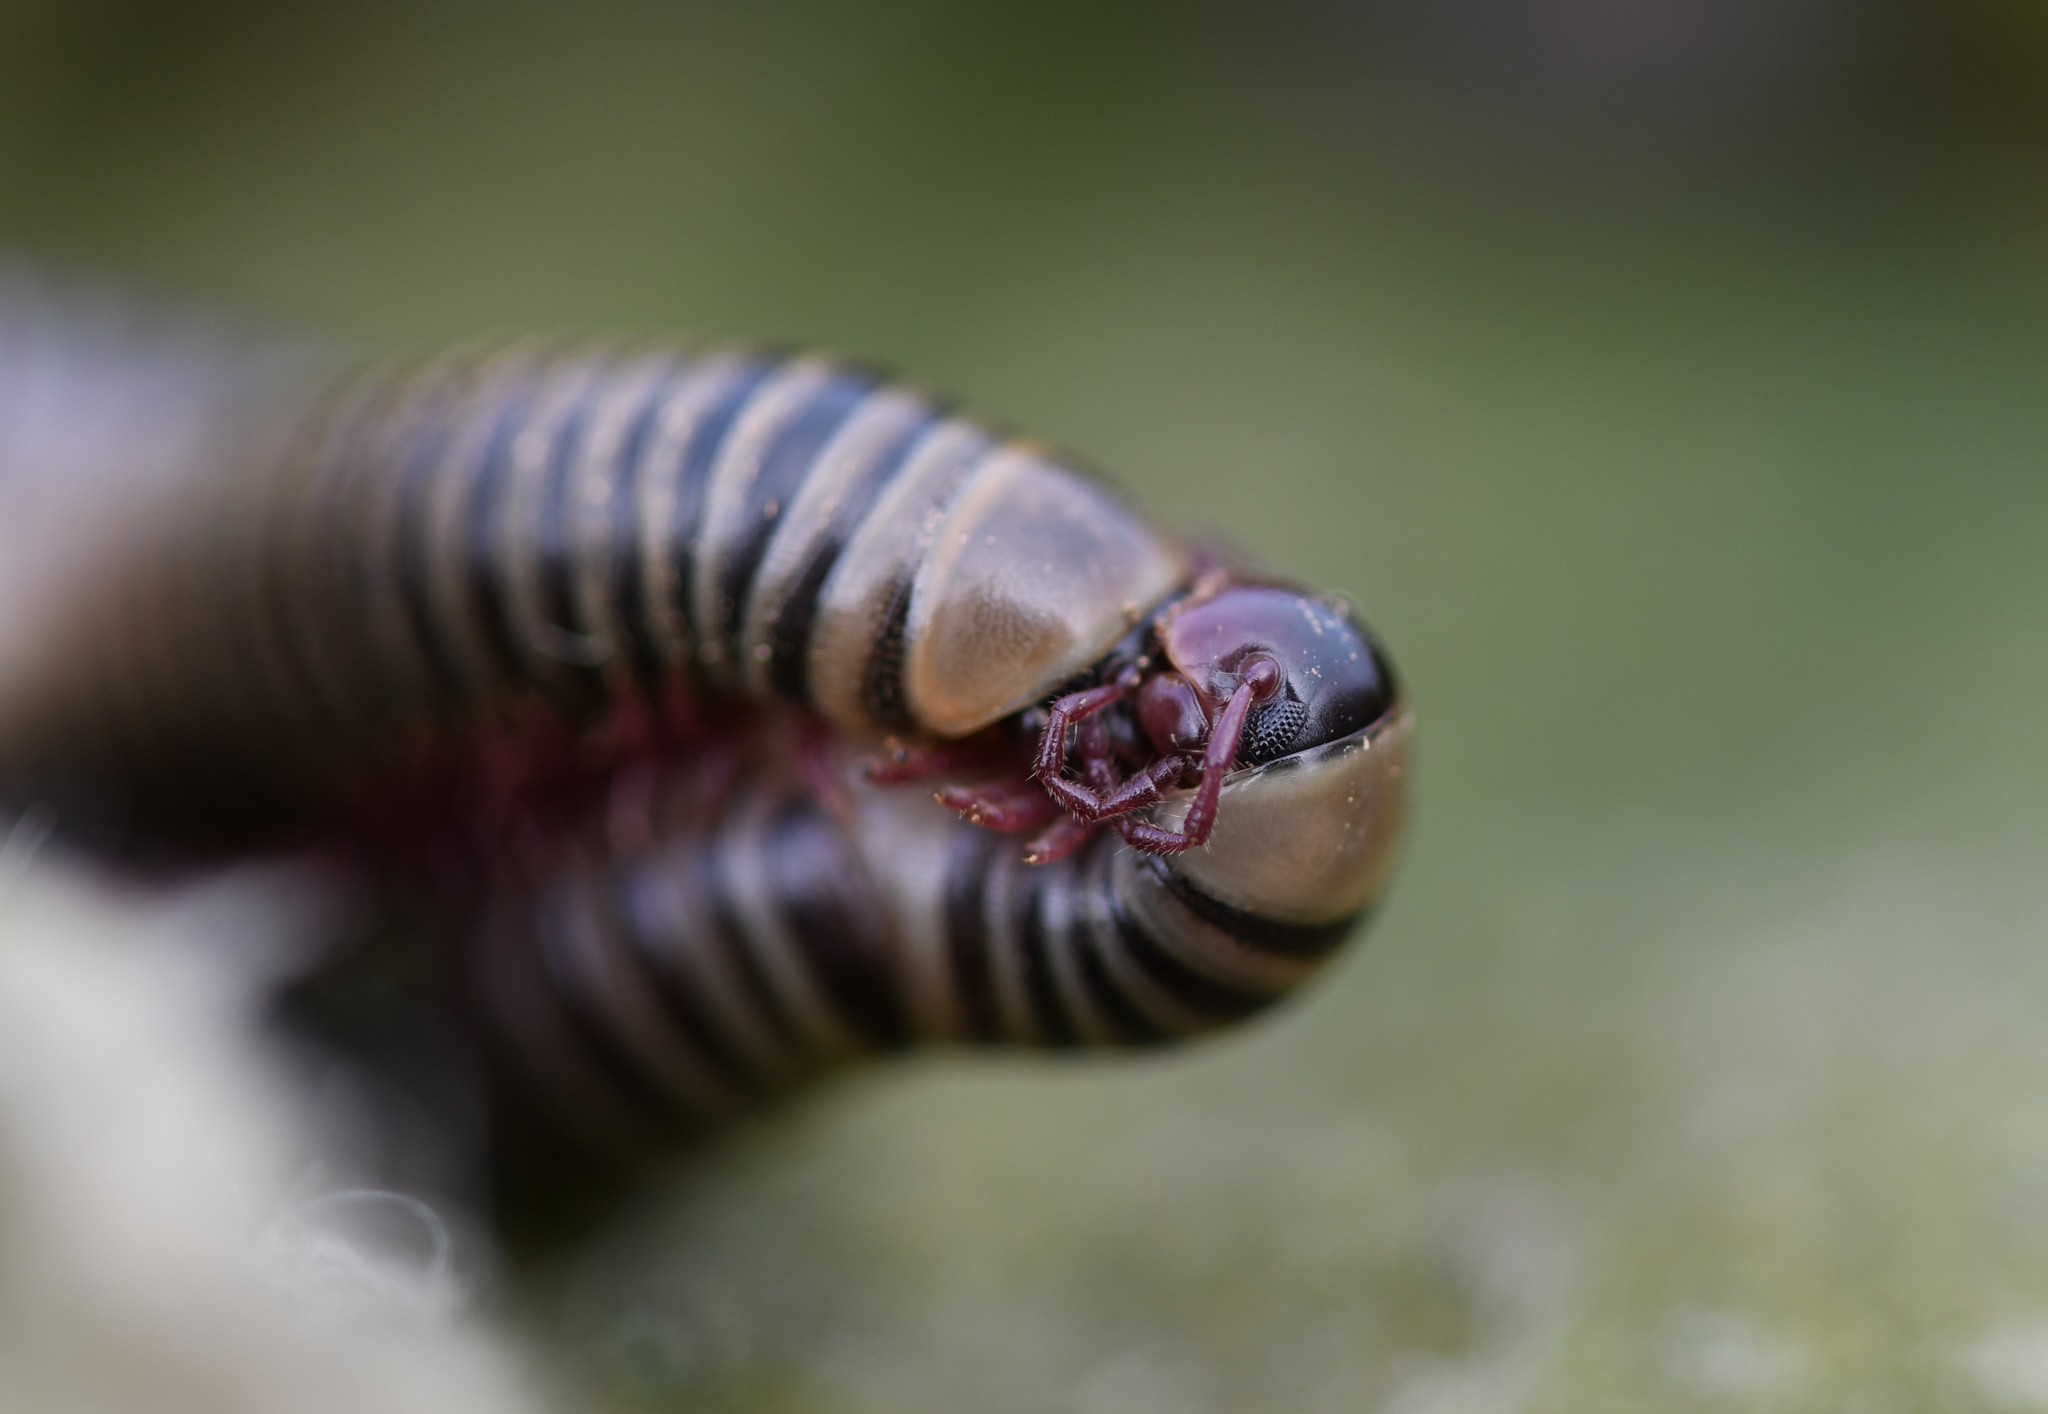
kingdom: Animalia
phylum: Arthropoda
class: Diplopoda
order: Julida
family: Julidae
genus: Ommatoiulus
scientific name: Ommatoiulus lusitanus
